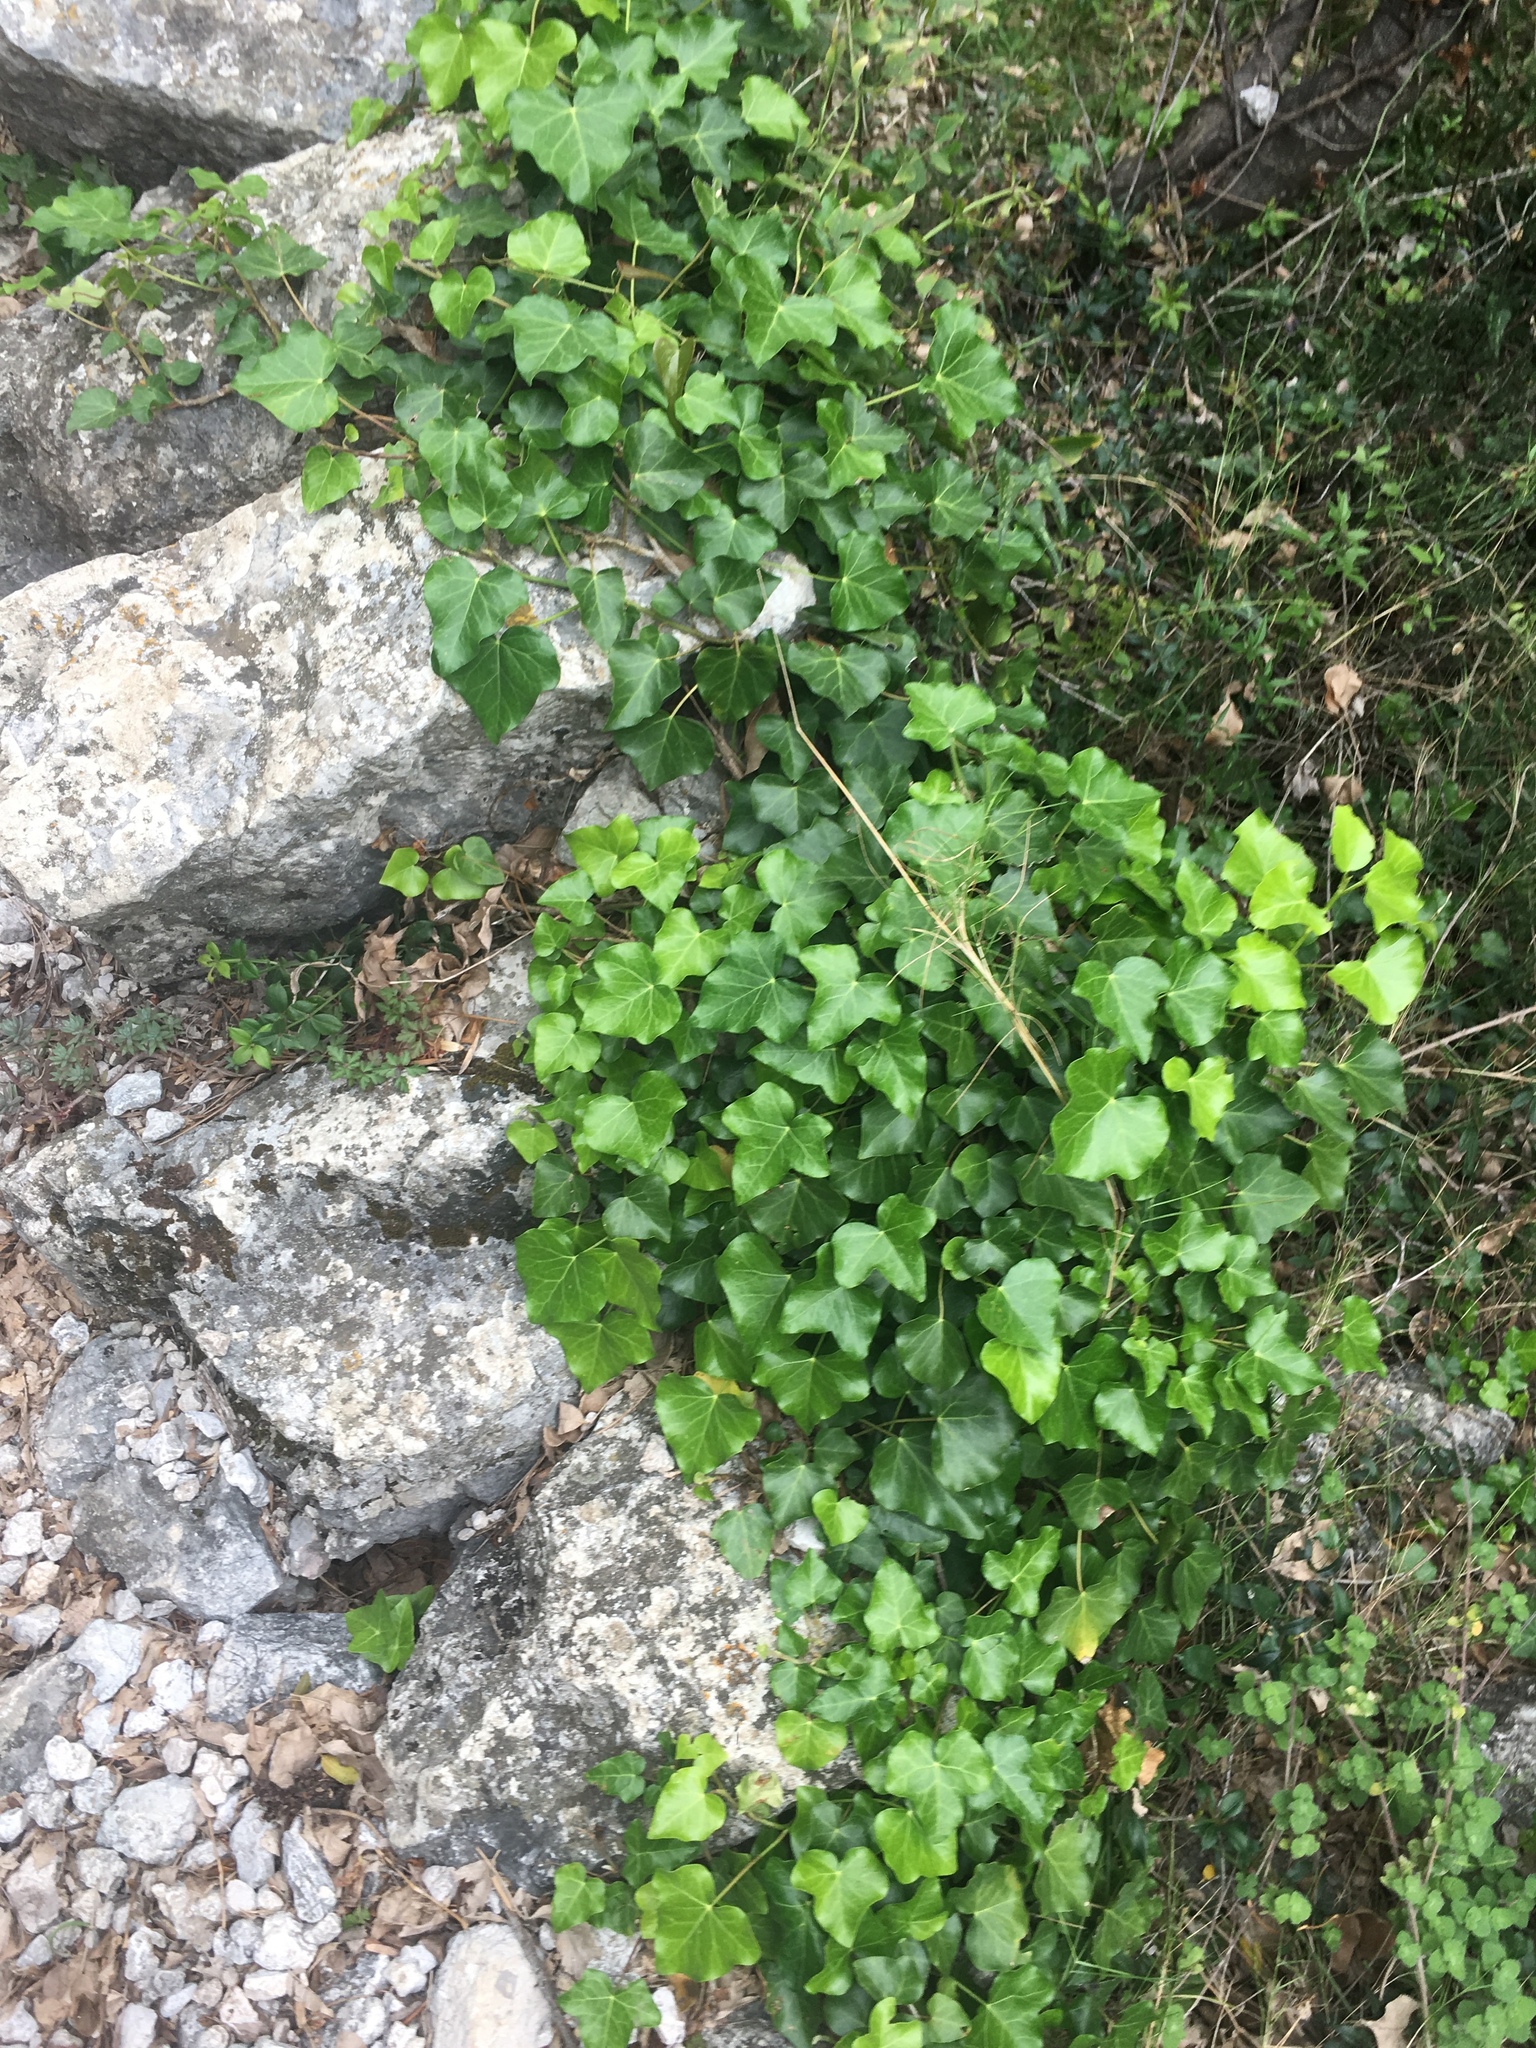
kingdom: Plantae
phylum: Tracheophyta
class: Magnoliopsida
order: Apiales
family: Araliaceae
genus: Hedera
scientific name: Hedera helix
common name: Ivy
